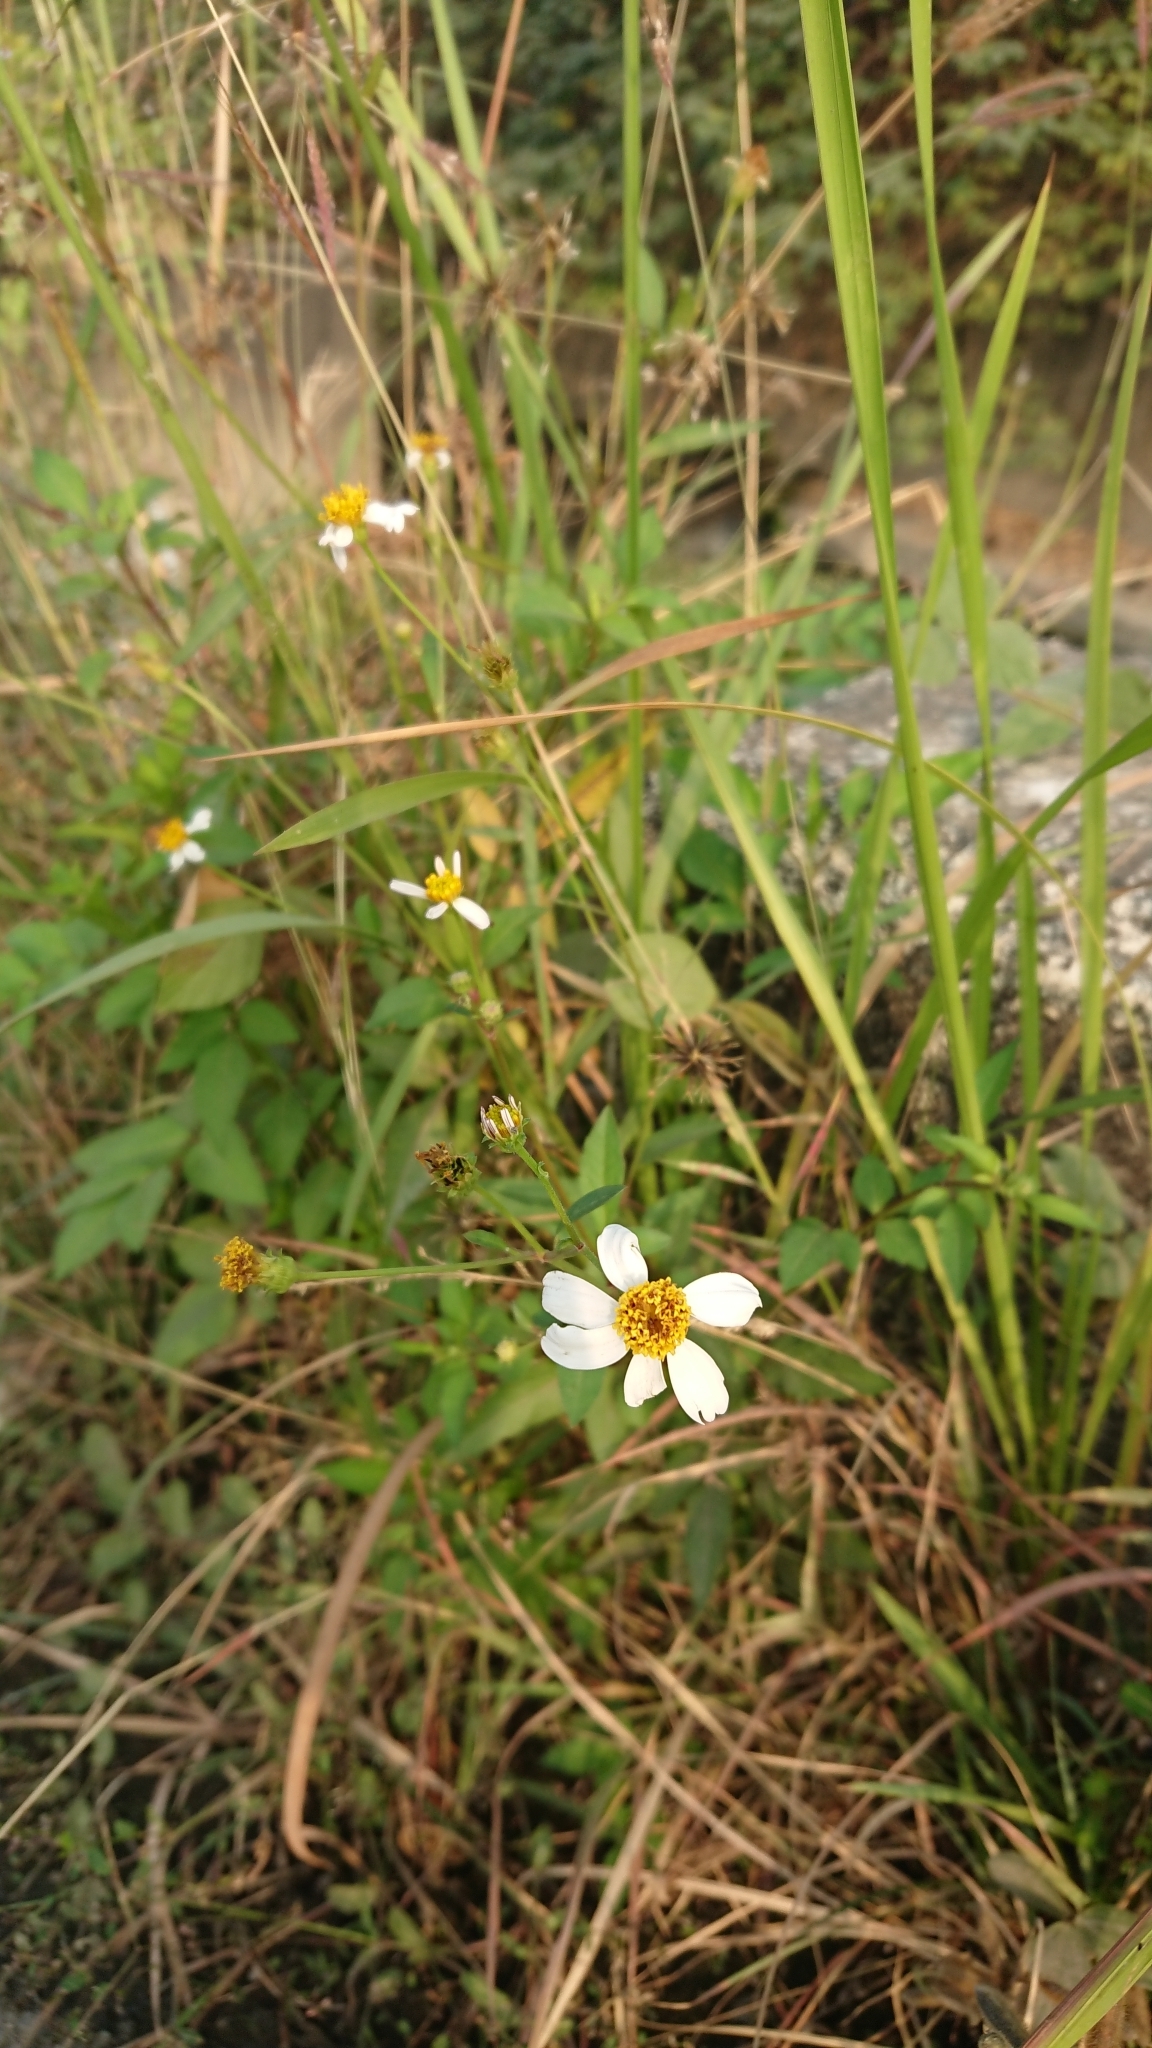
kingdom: Plantae
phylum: Tracheophyta
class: Magnoliopsida
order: Asterales
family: Asteraceae
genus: Bidens
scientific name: Bidens alba
